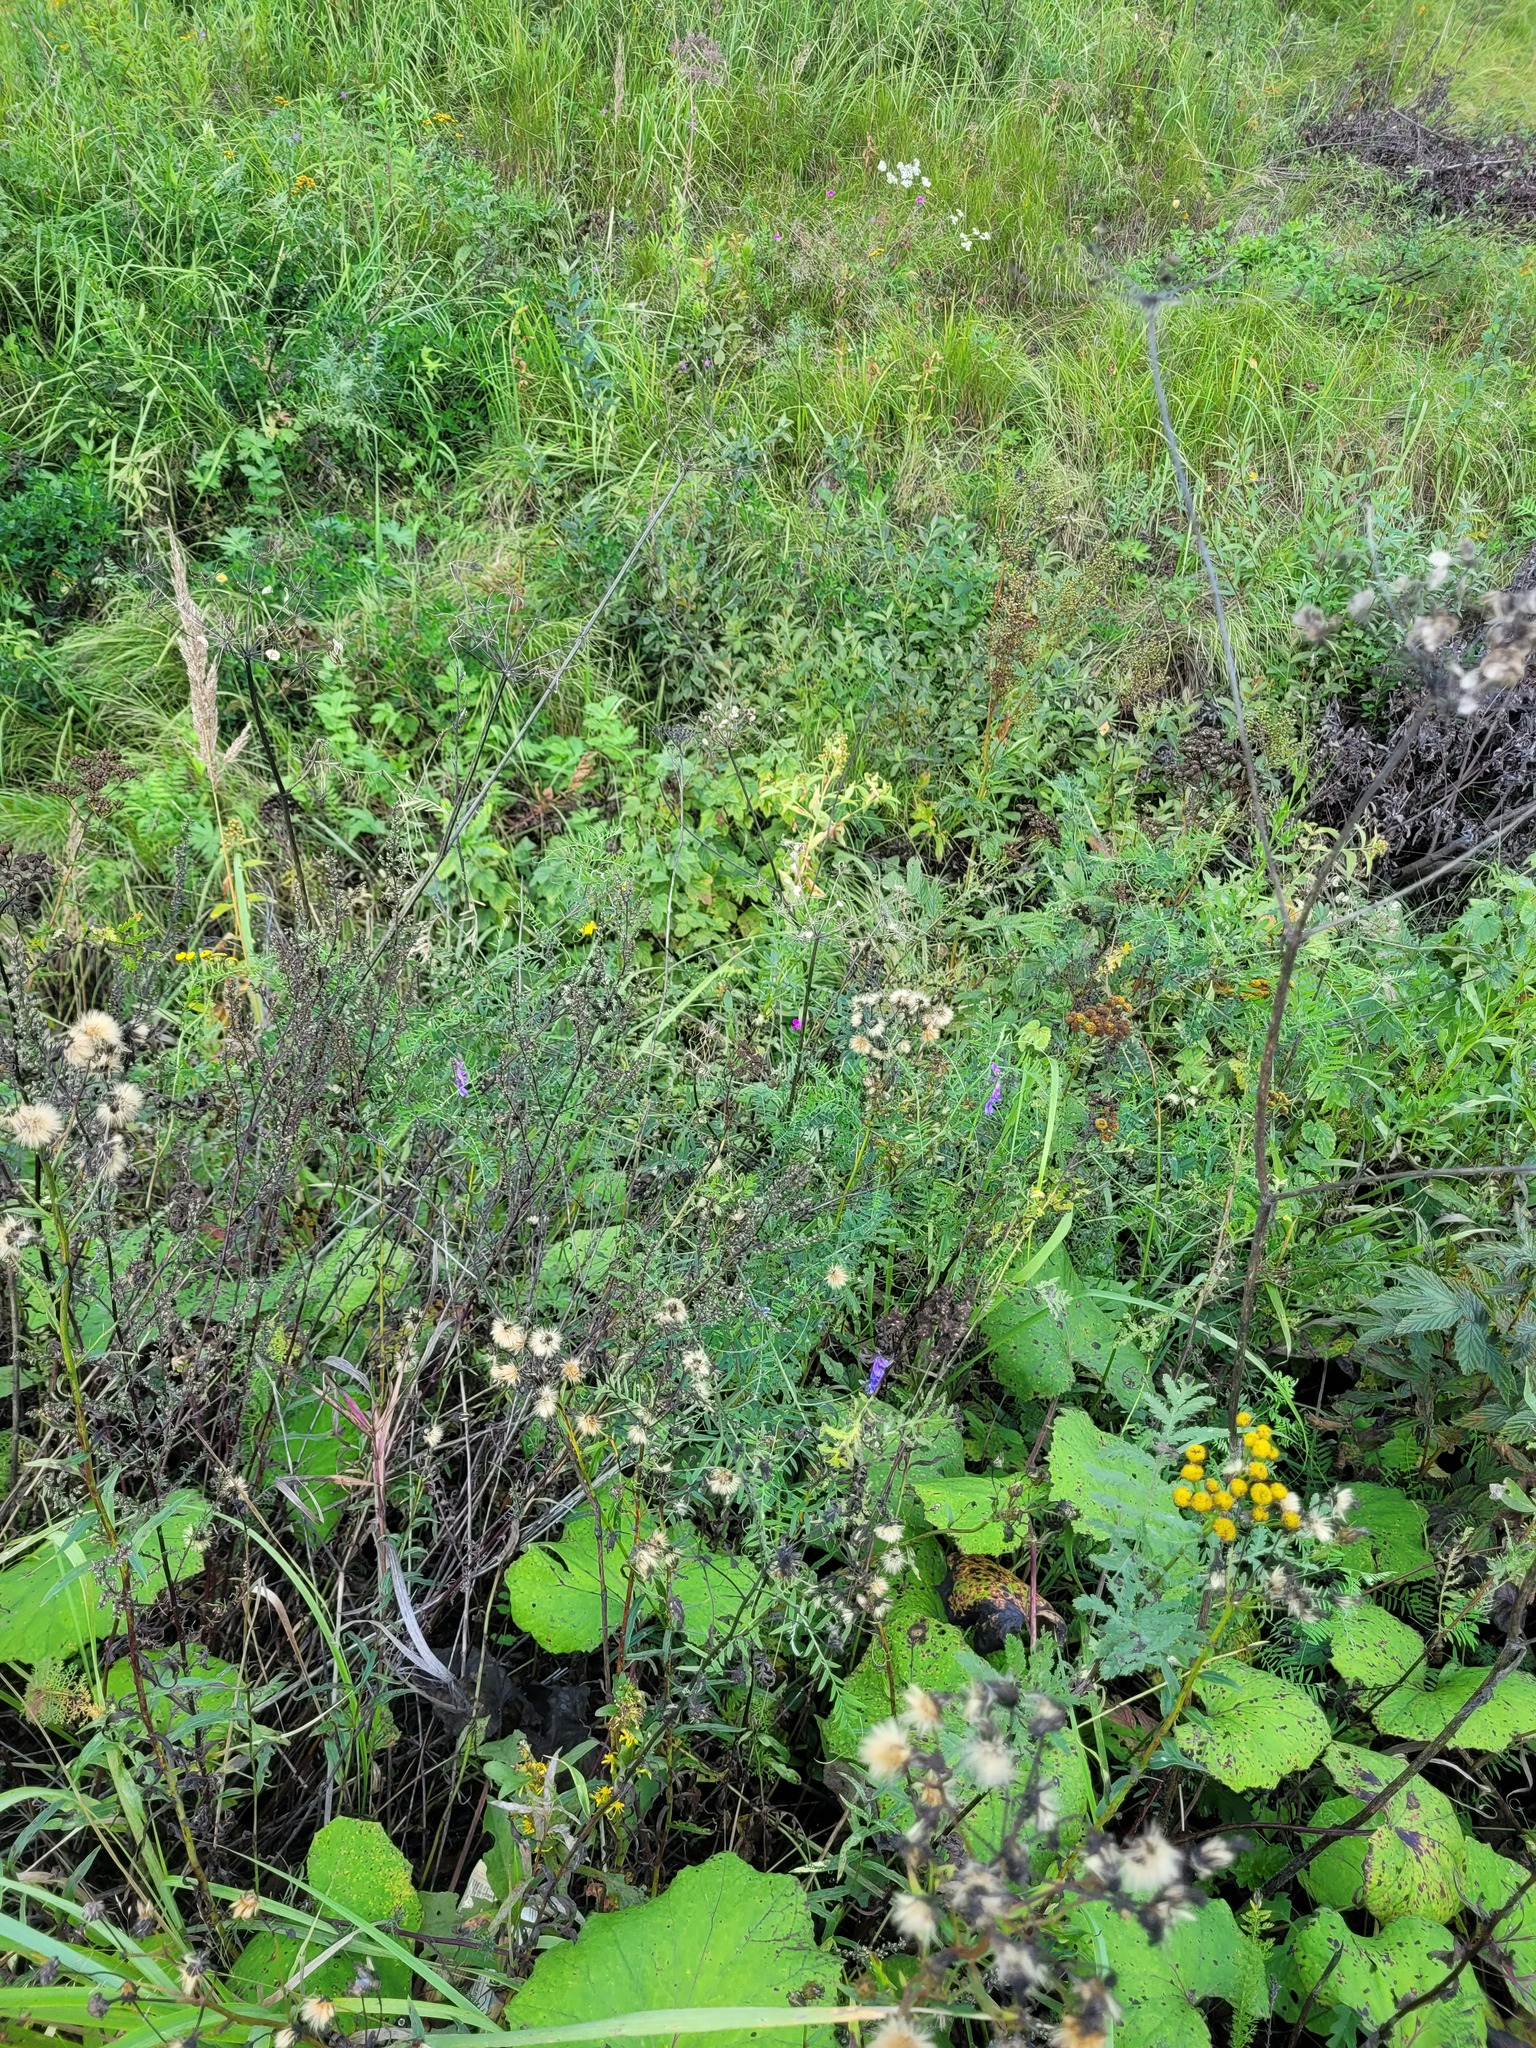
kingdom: Plantae
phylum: Tracheophyta
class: Magnoliopsida
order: Saxifragales
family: Grossulariaceae
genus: Ribes
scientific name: Ribes nigrum
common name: Black currant
